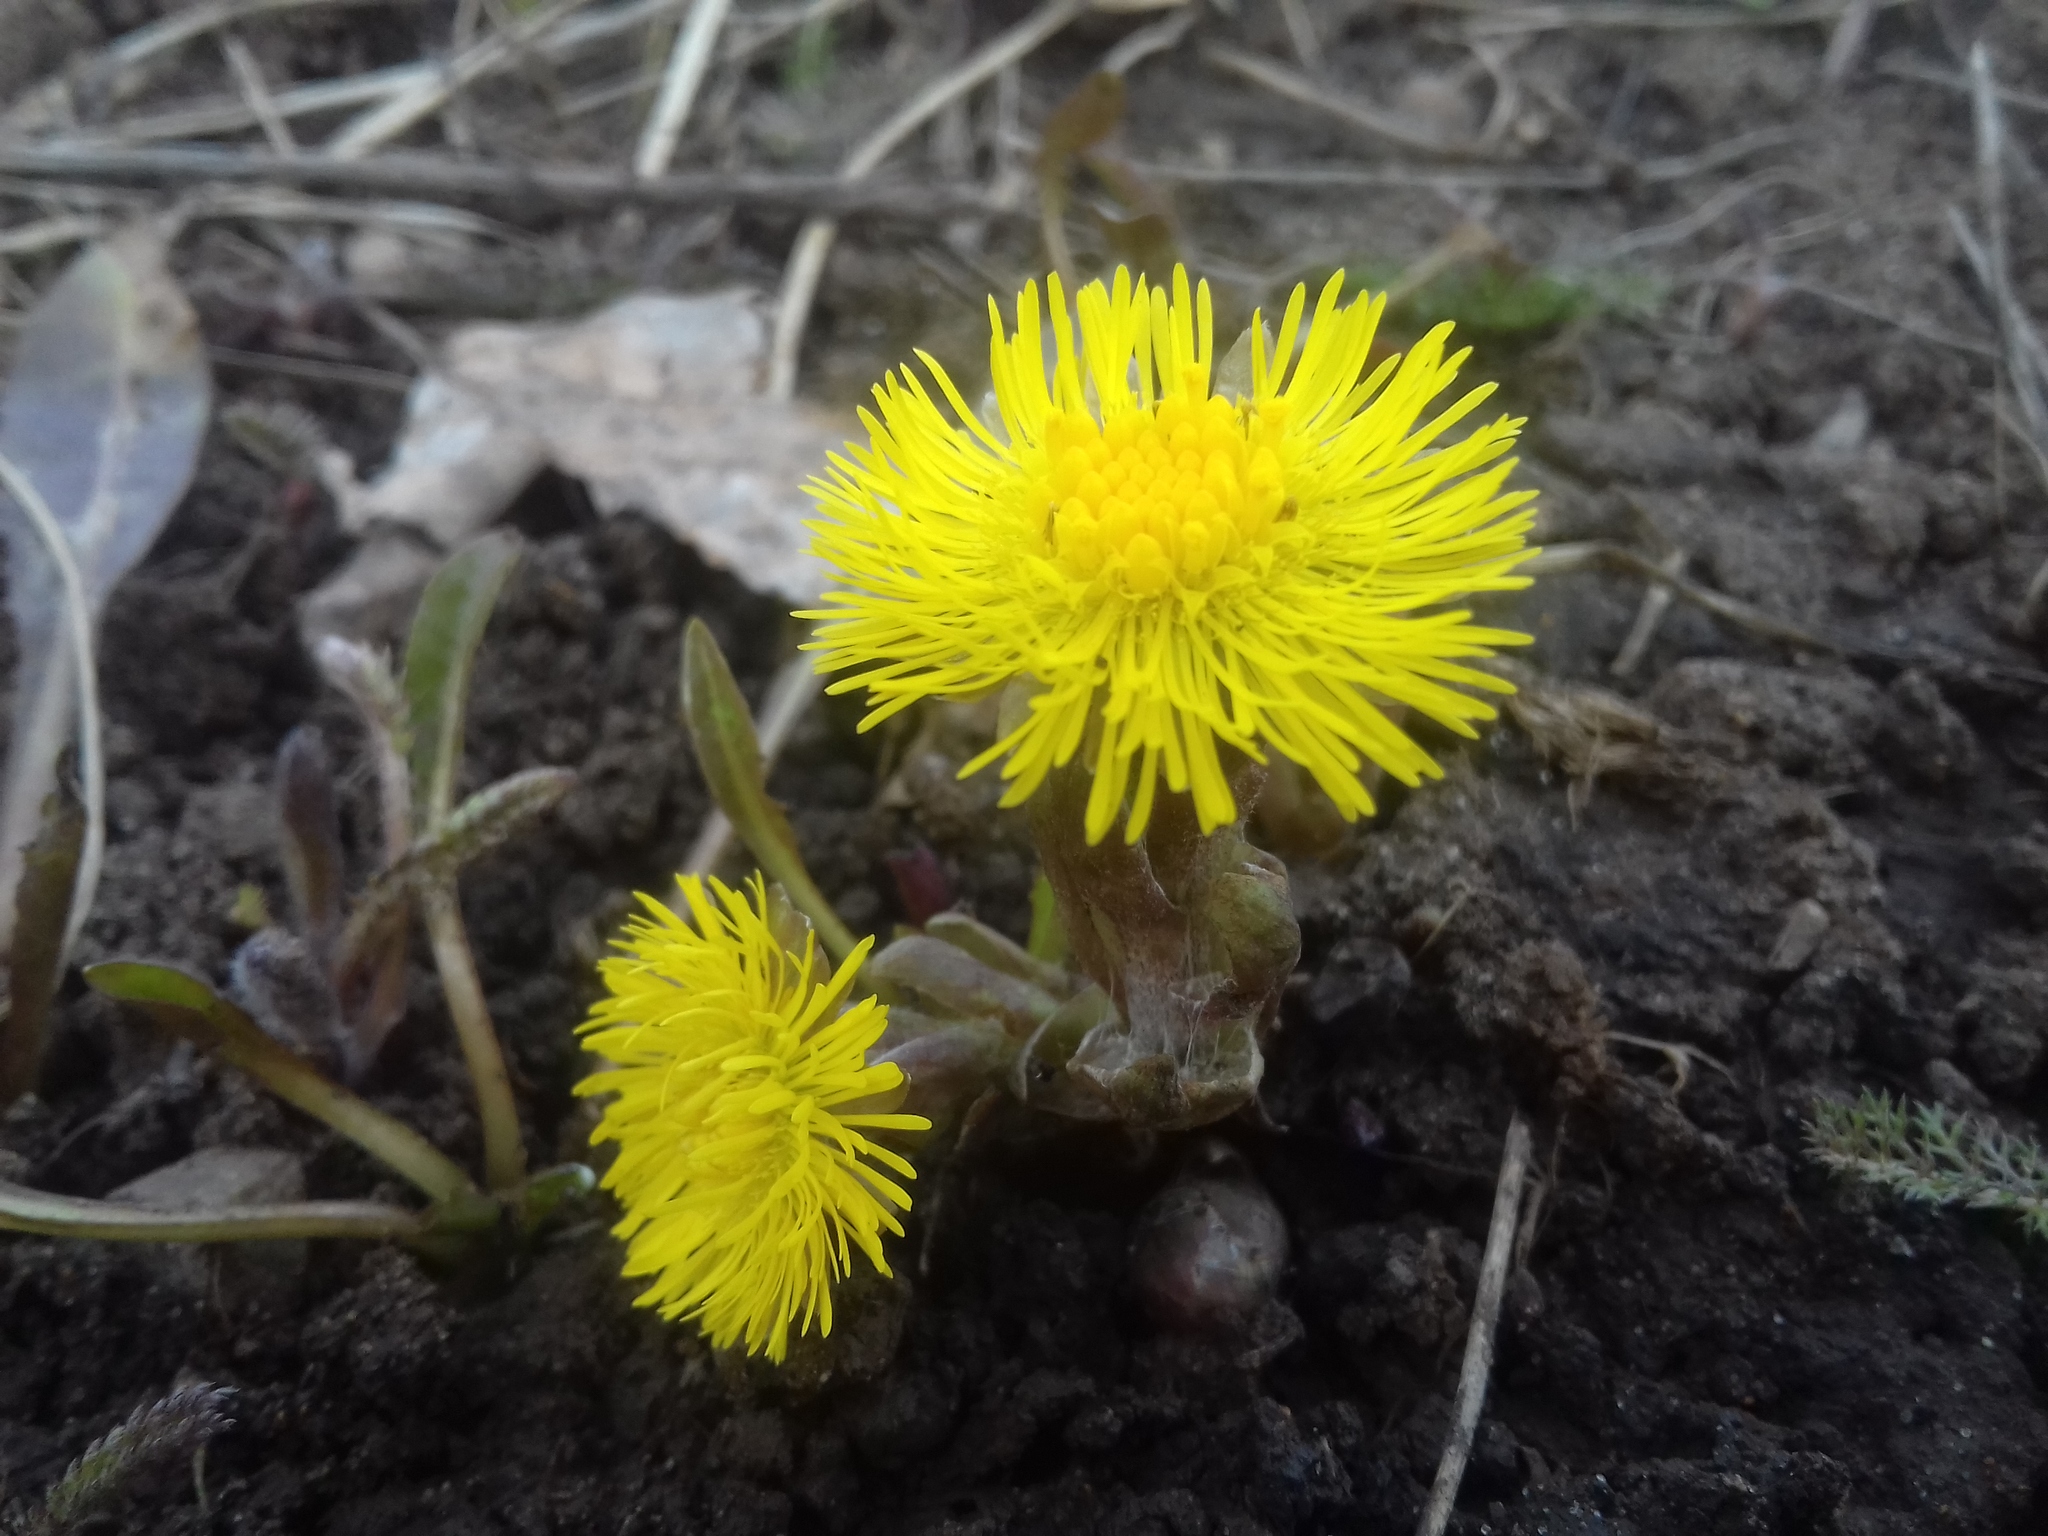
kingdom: Plantae
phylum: Tracheophyta
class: Magnoliopsida
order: Asterales
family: Asteraceae
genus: Tussilago
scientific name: Tussilago farfara
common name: Coltsfoot
